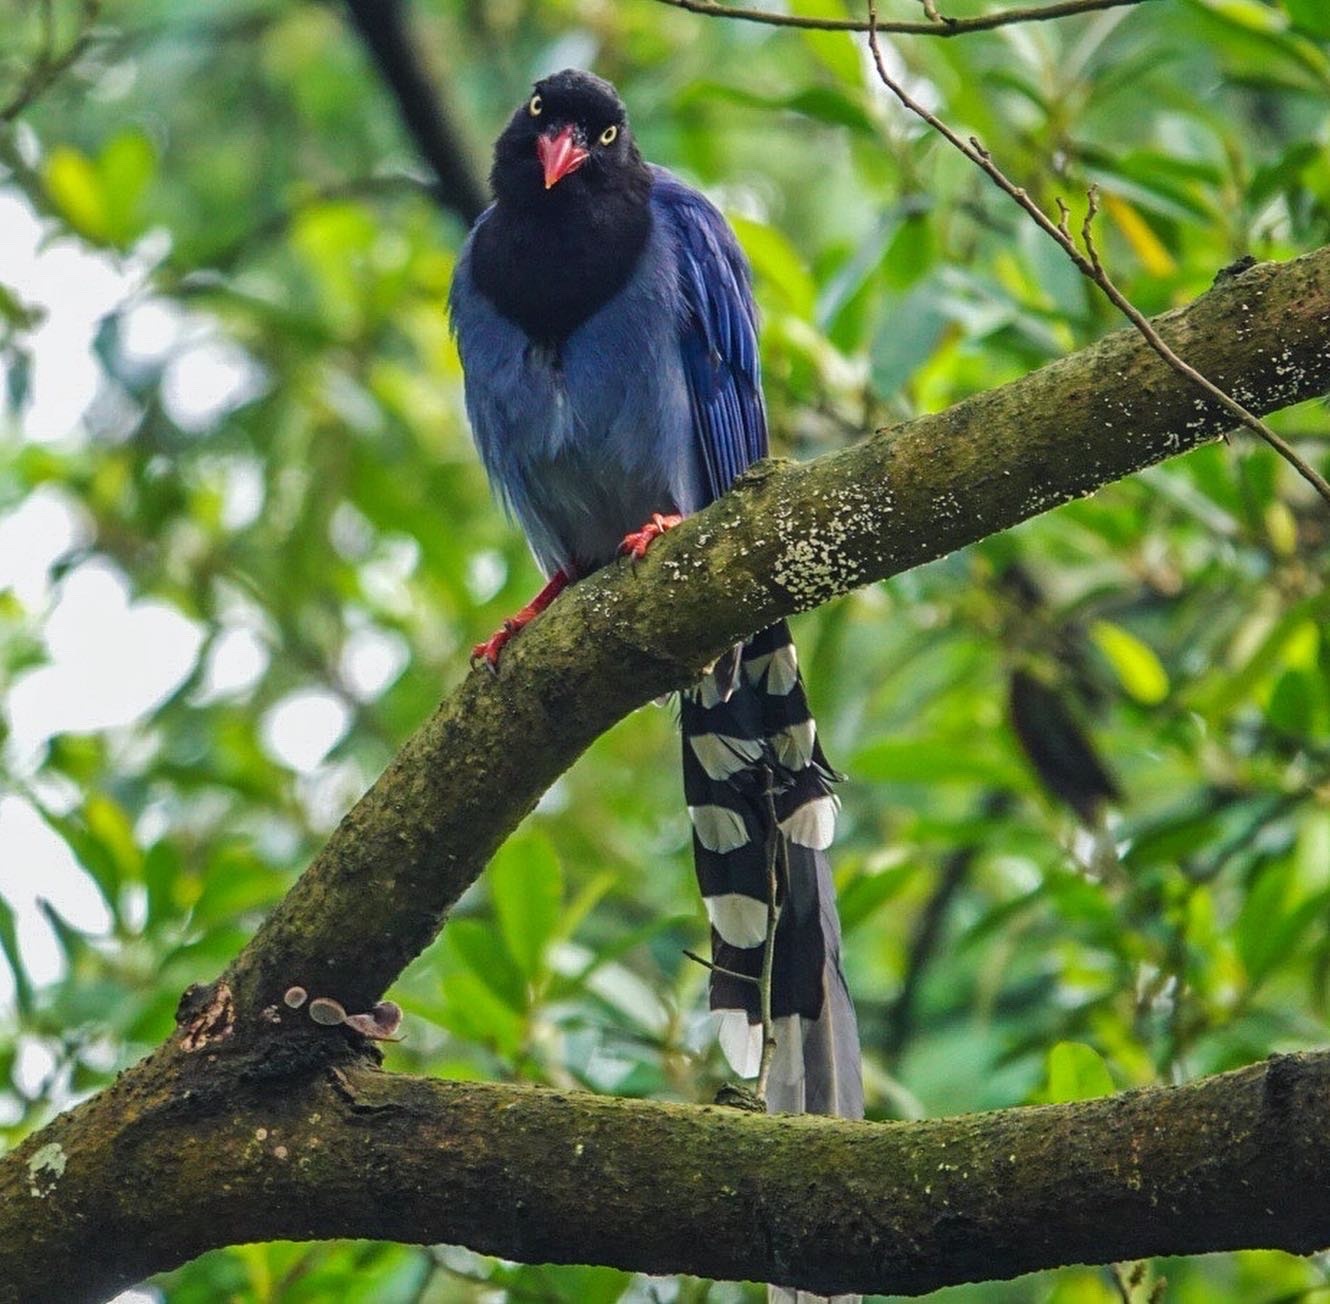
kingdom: Animalia
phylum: Chordata
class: Aves
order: Passeriformes
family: Corvidae
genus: Urocissa
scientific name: Urocissa caerulea
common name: Taiwan blue magpie
